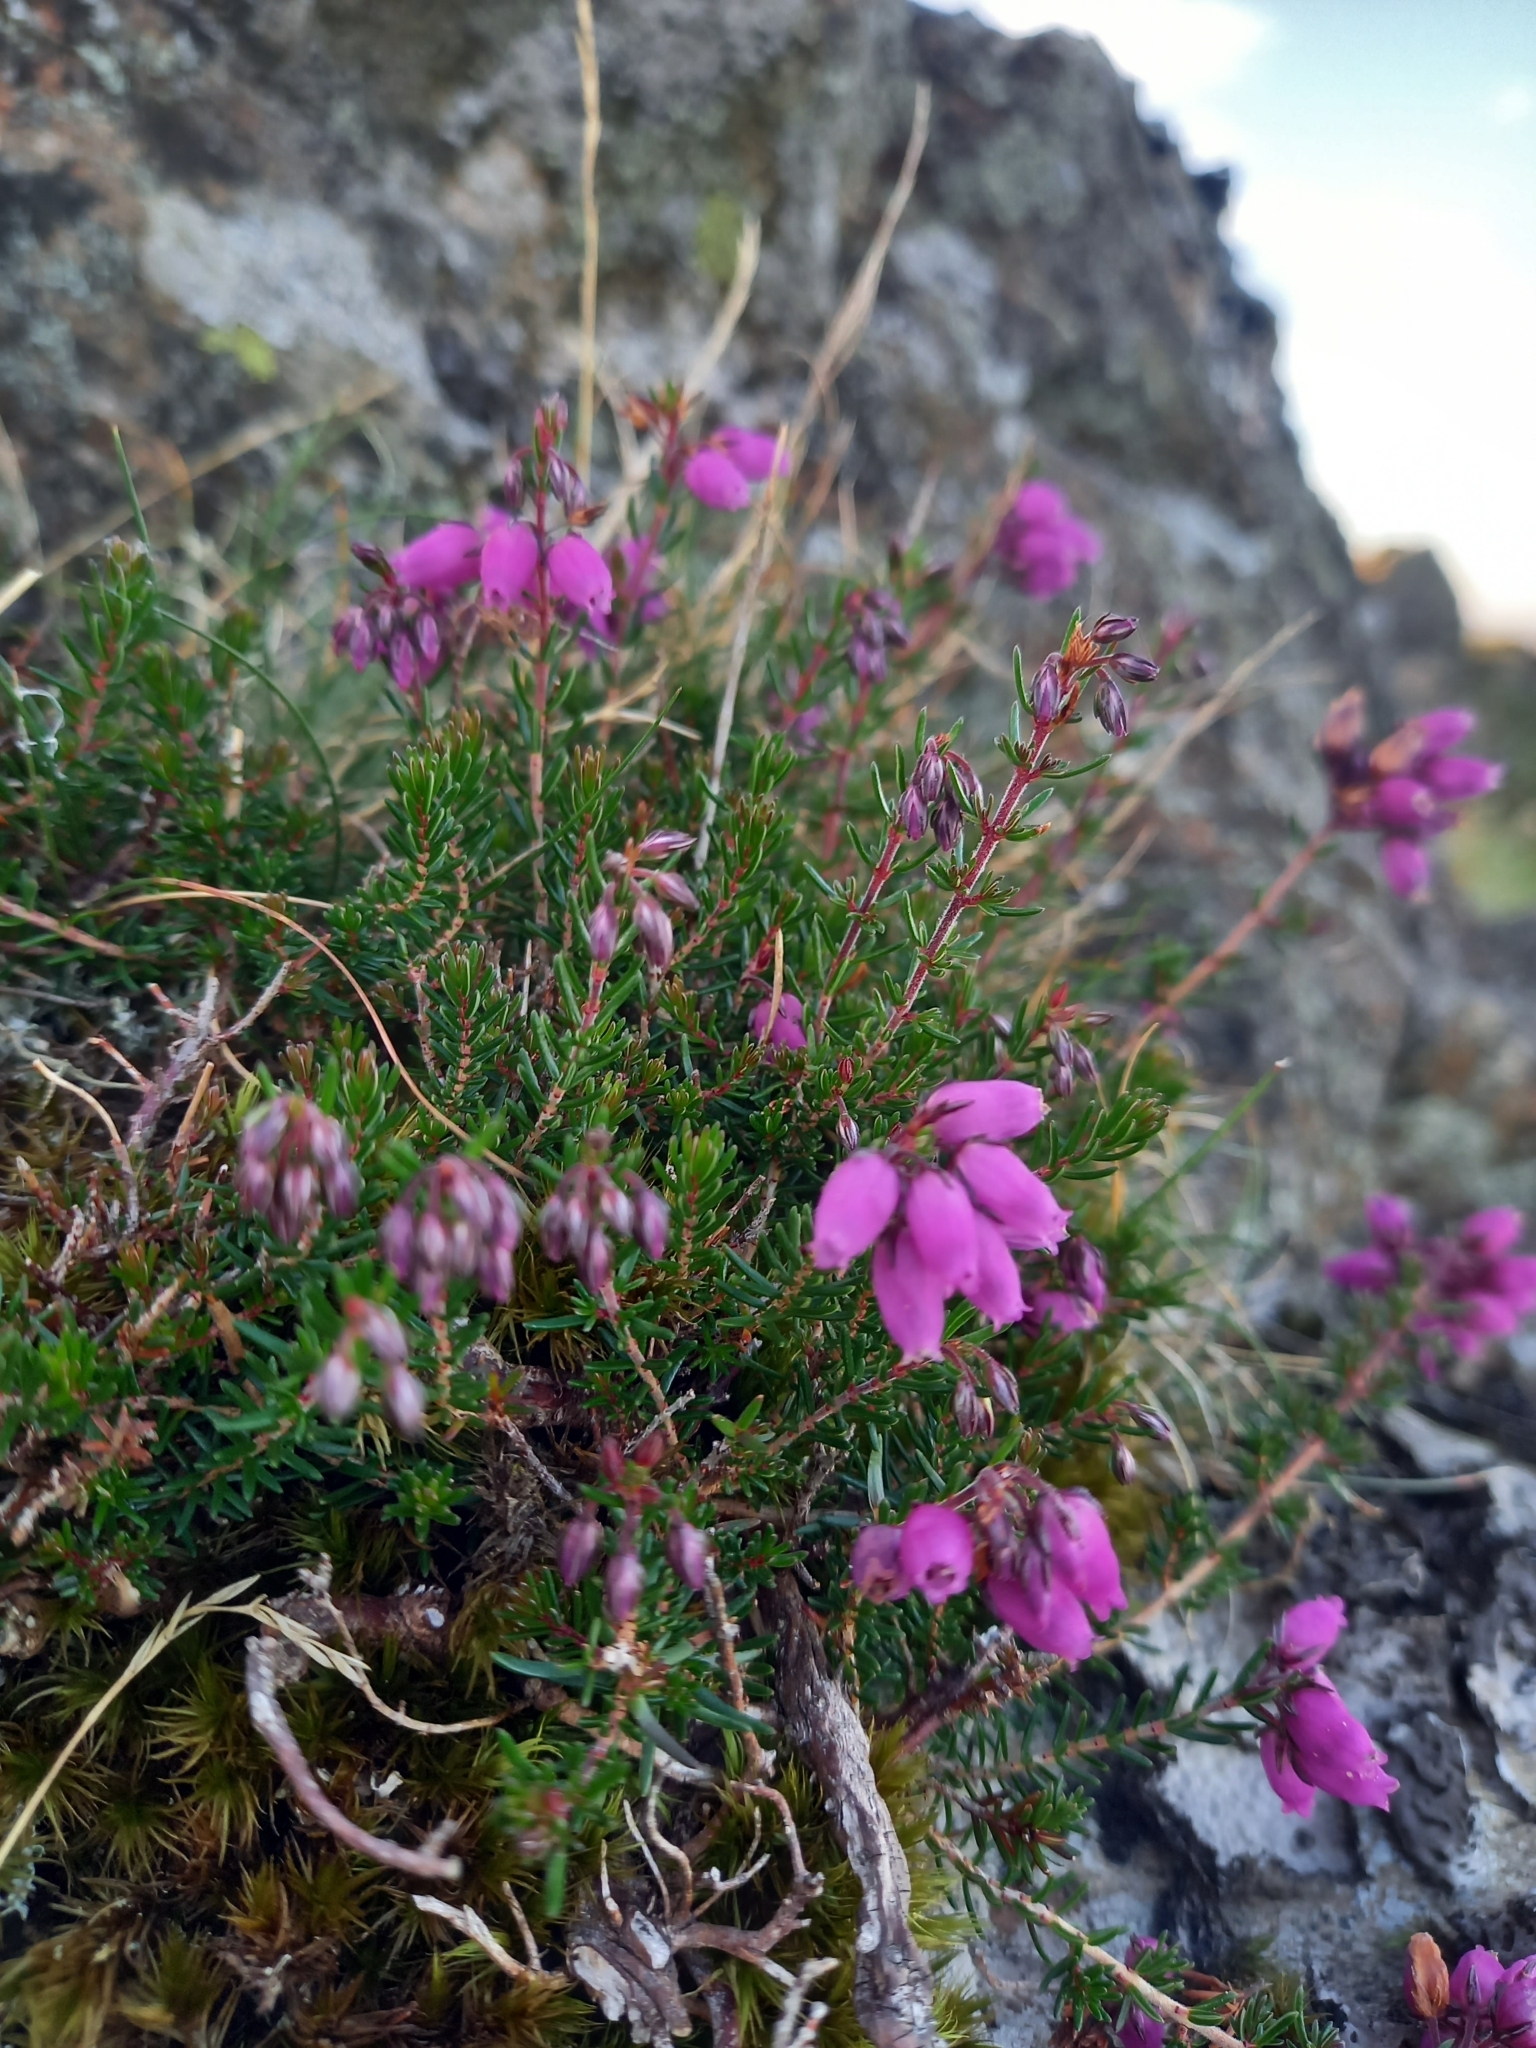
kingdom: Plantae
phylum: Tracheophyta
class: Magnoliopsida
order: Ericales
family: Ericaceae
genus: Erica
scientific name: Erica cinerea
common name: Bell heather
